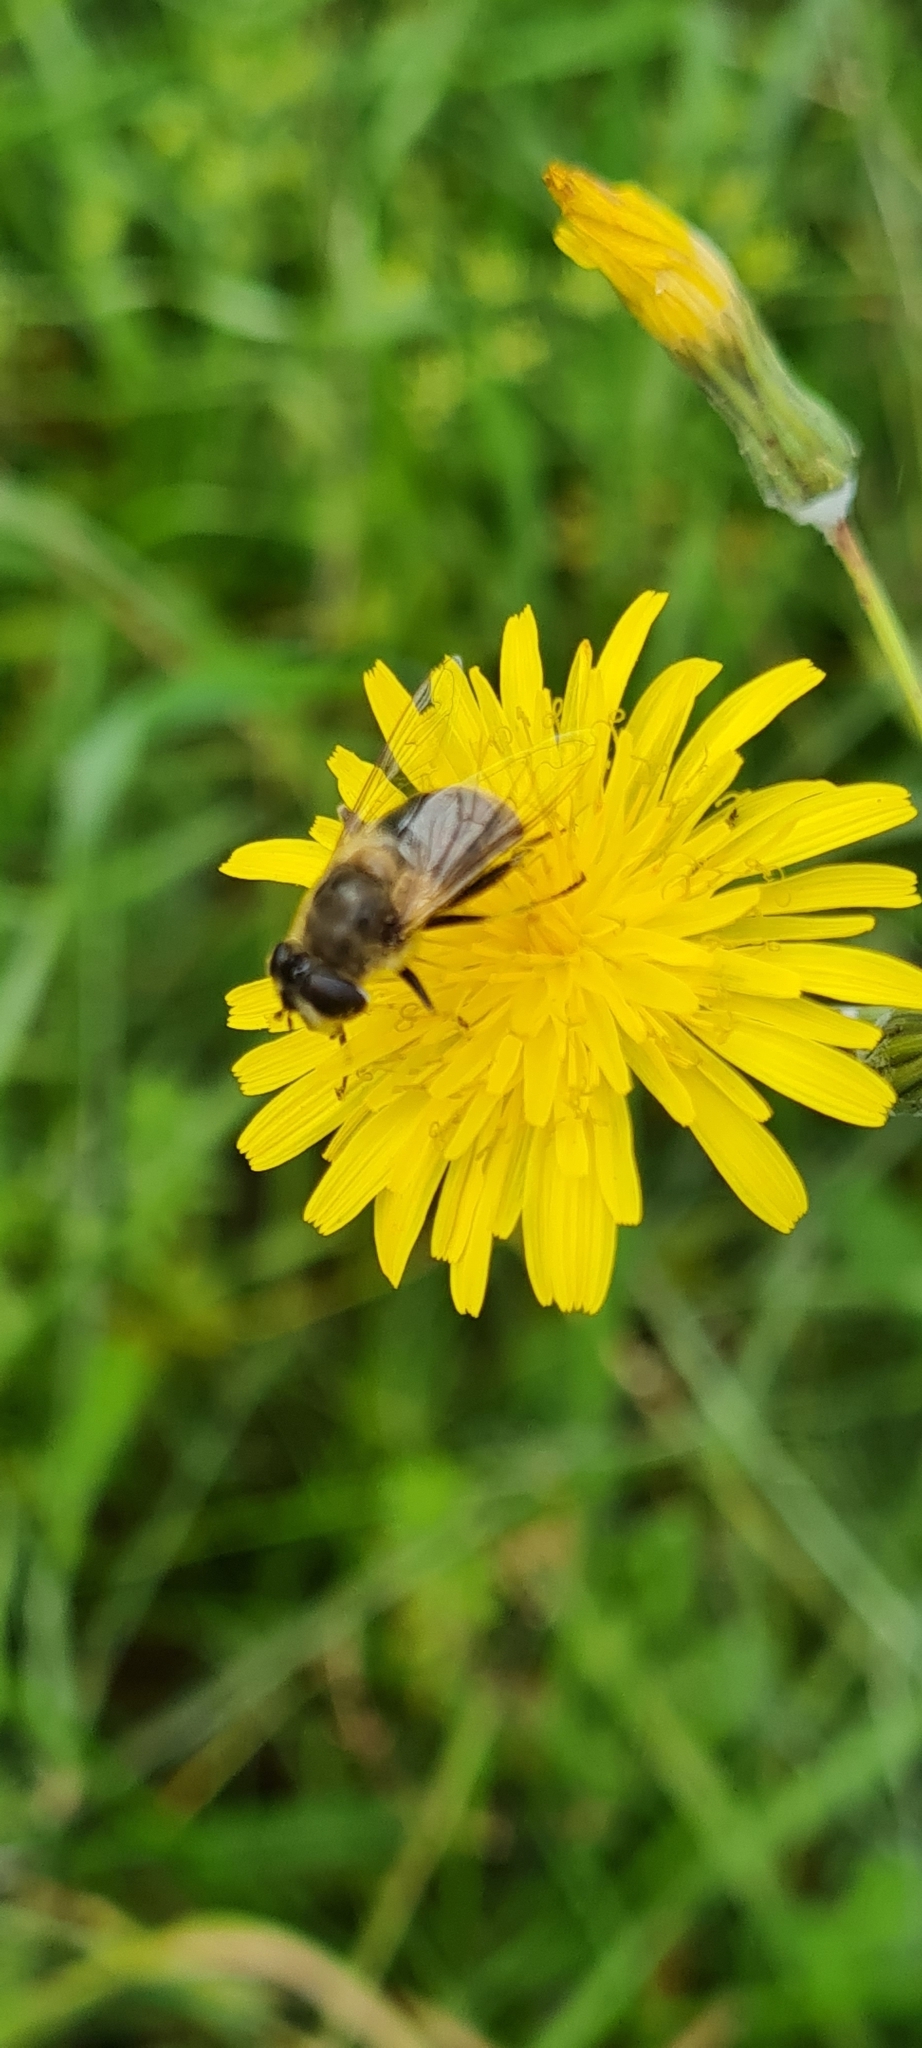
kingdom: Animalia
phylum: Arthropoda
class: Insecta
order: Diptera
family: Syrphidae
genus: Eristalis
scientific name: Eristalis tenax
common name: Drone fly
